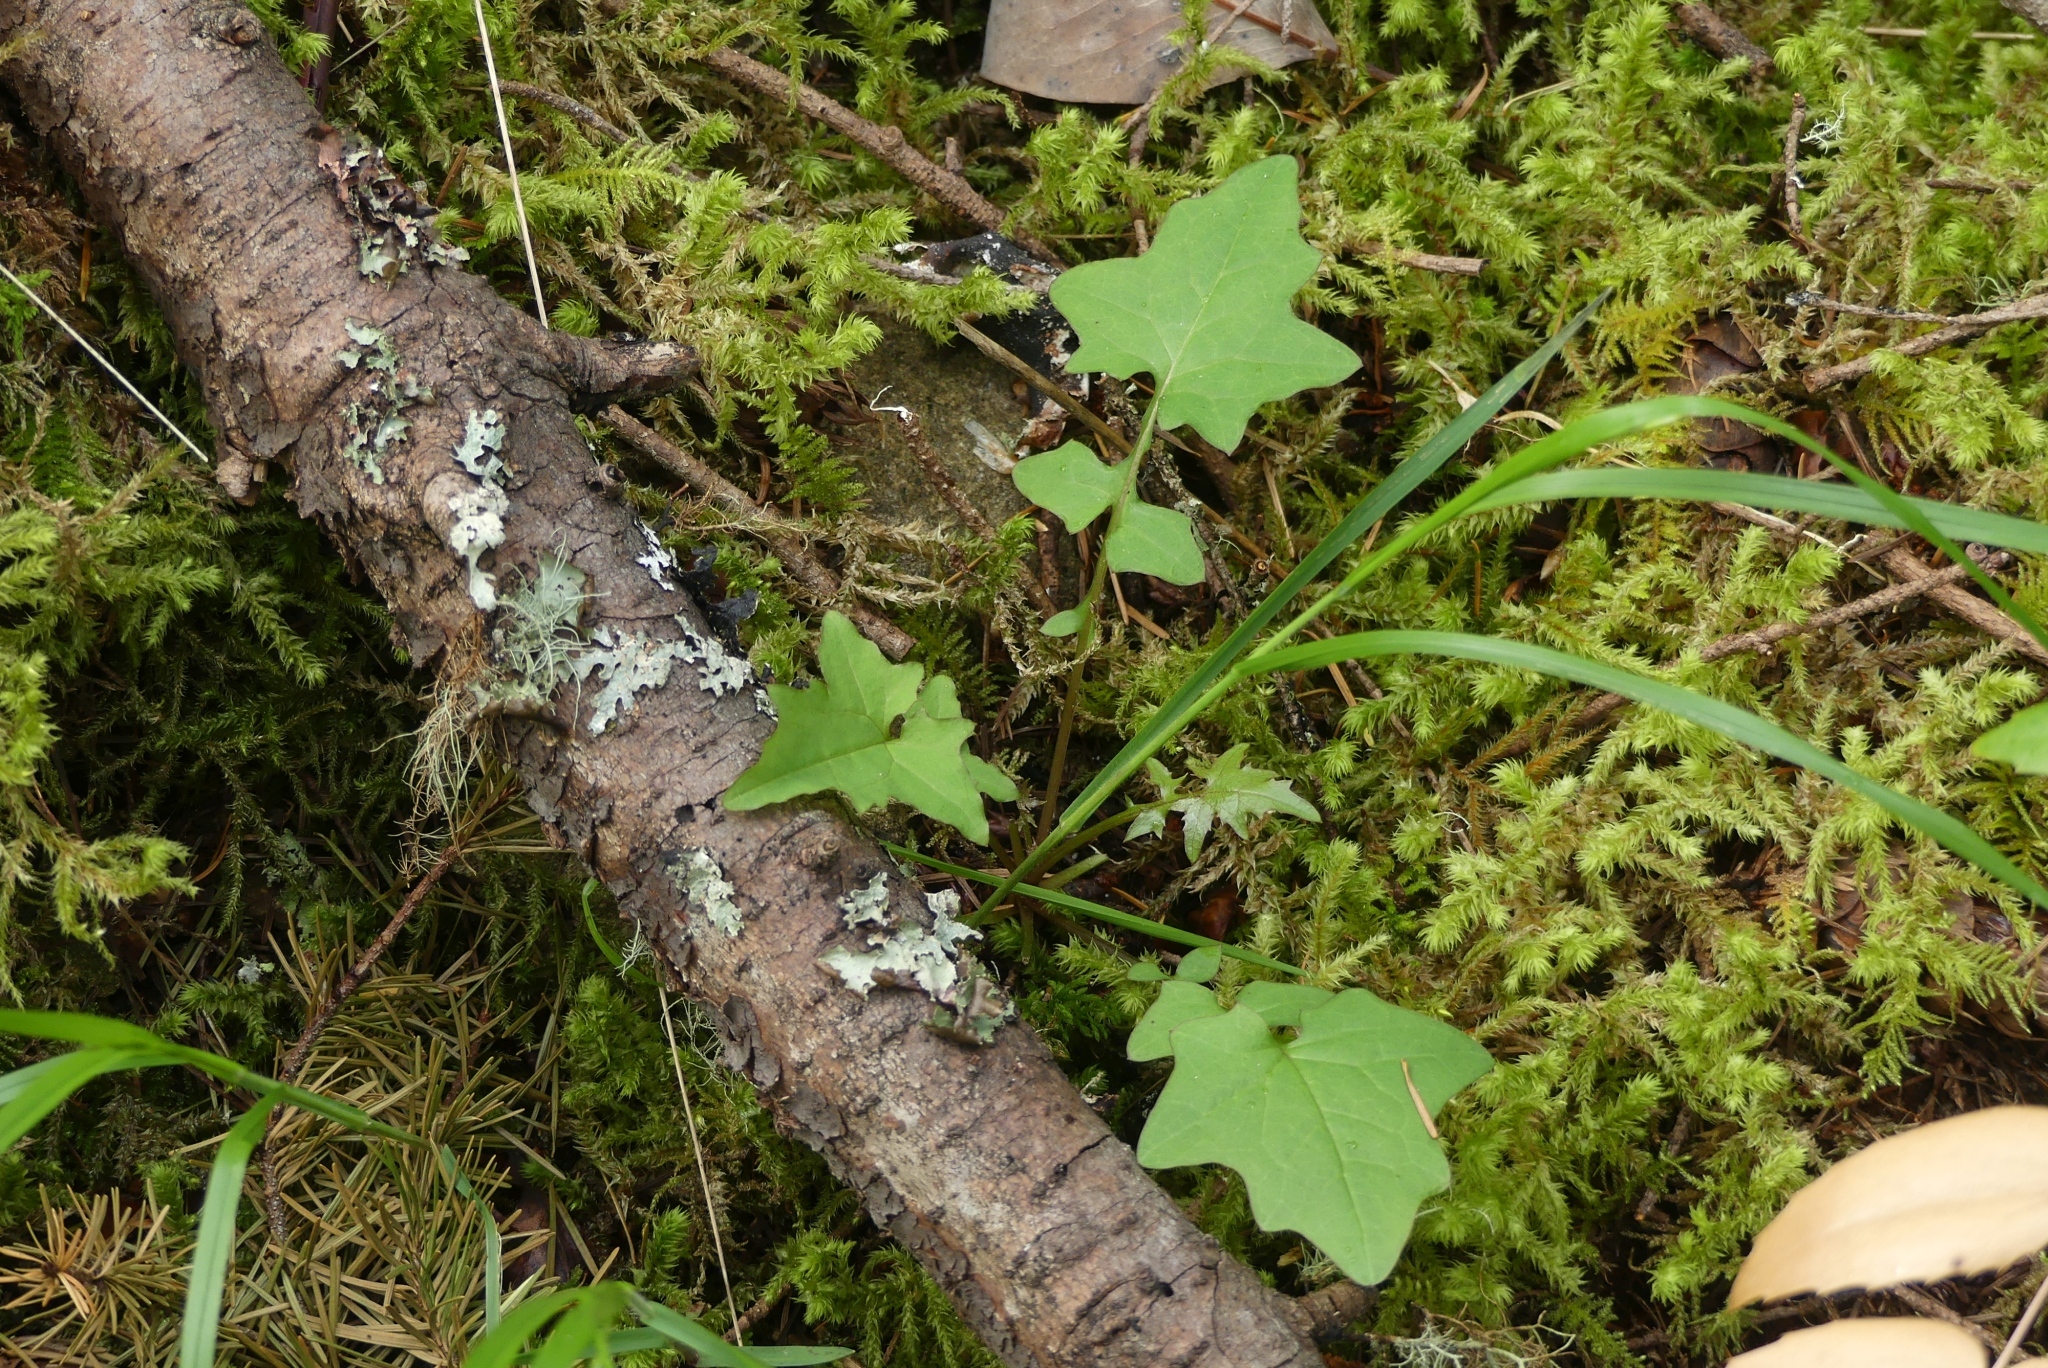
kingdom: Plantae
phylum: Tracheophyta
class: Magnoliopsida
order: Asterales
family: Asteraceae
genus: Mycelis
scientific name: Mycelis muralis
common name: Wall lettuce
